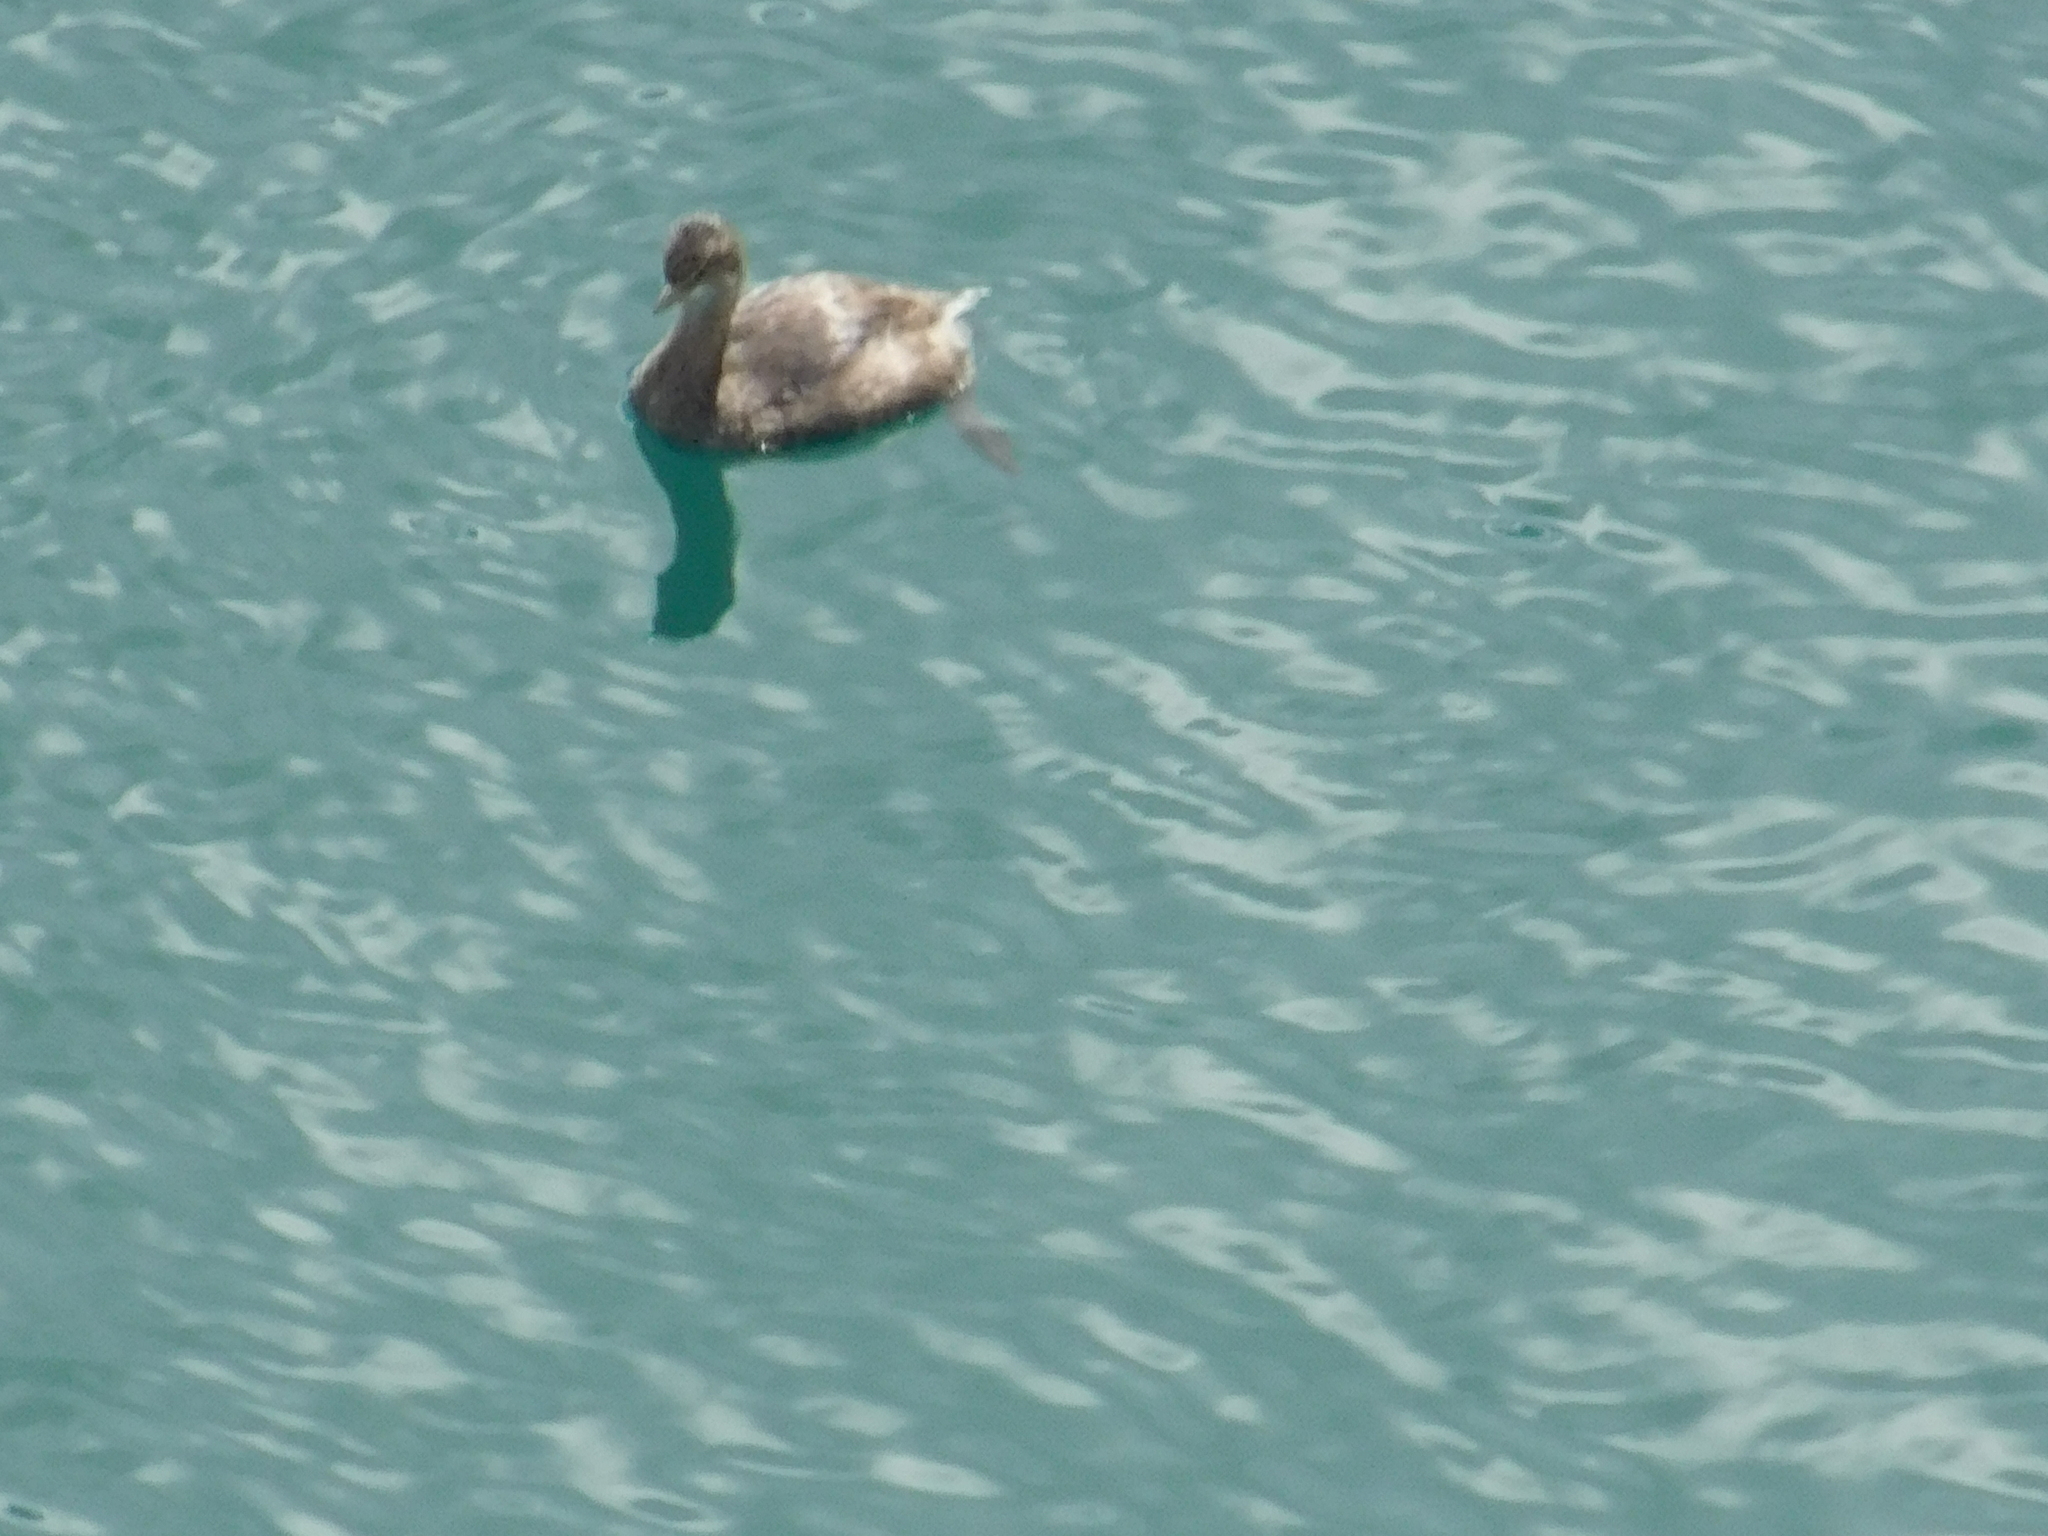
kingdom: Animalia
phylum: Chordata
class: Aves
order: Podicipediformes
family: Podicipedidae
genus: Podilymbus
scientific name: Podilymbus podiceps
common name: Pied-billed grebe
